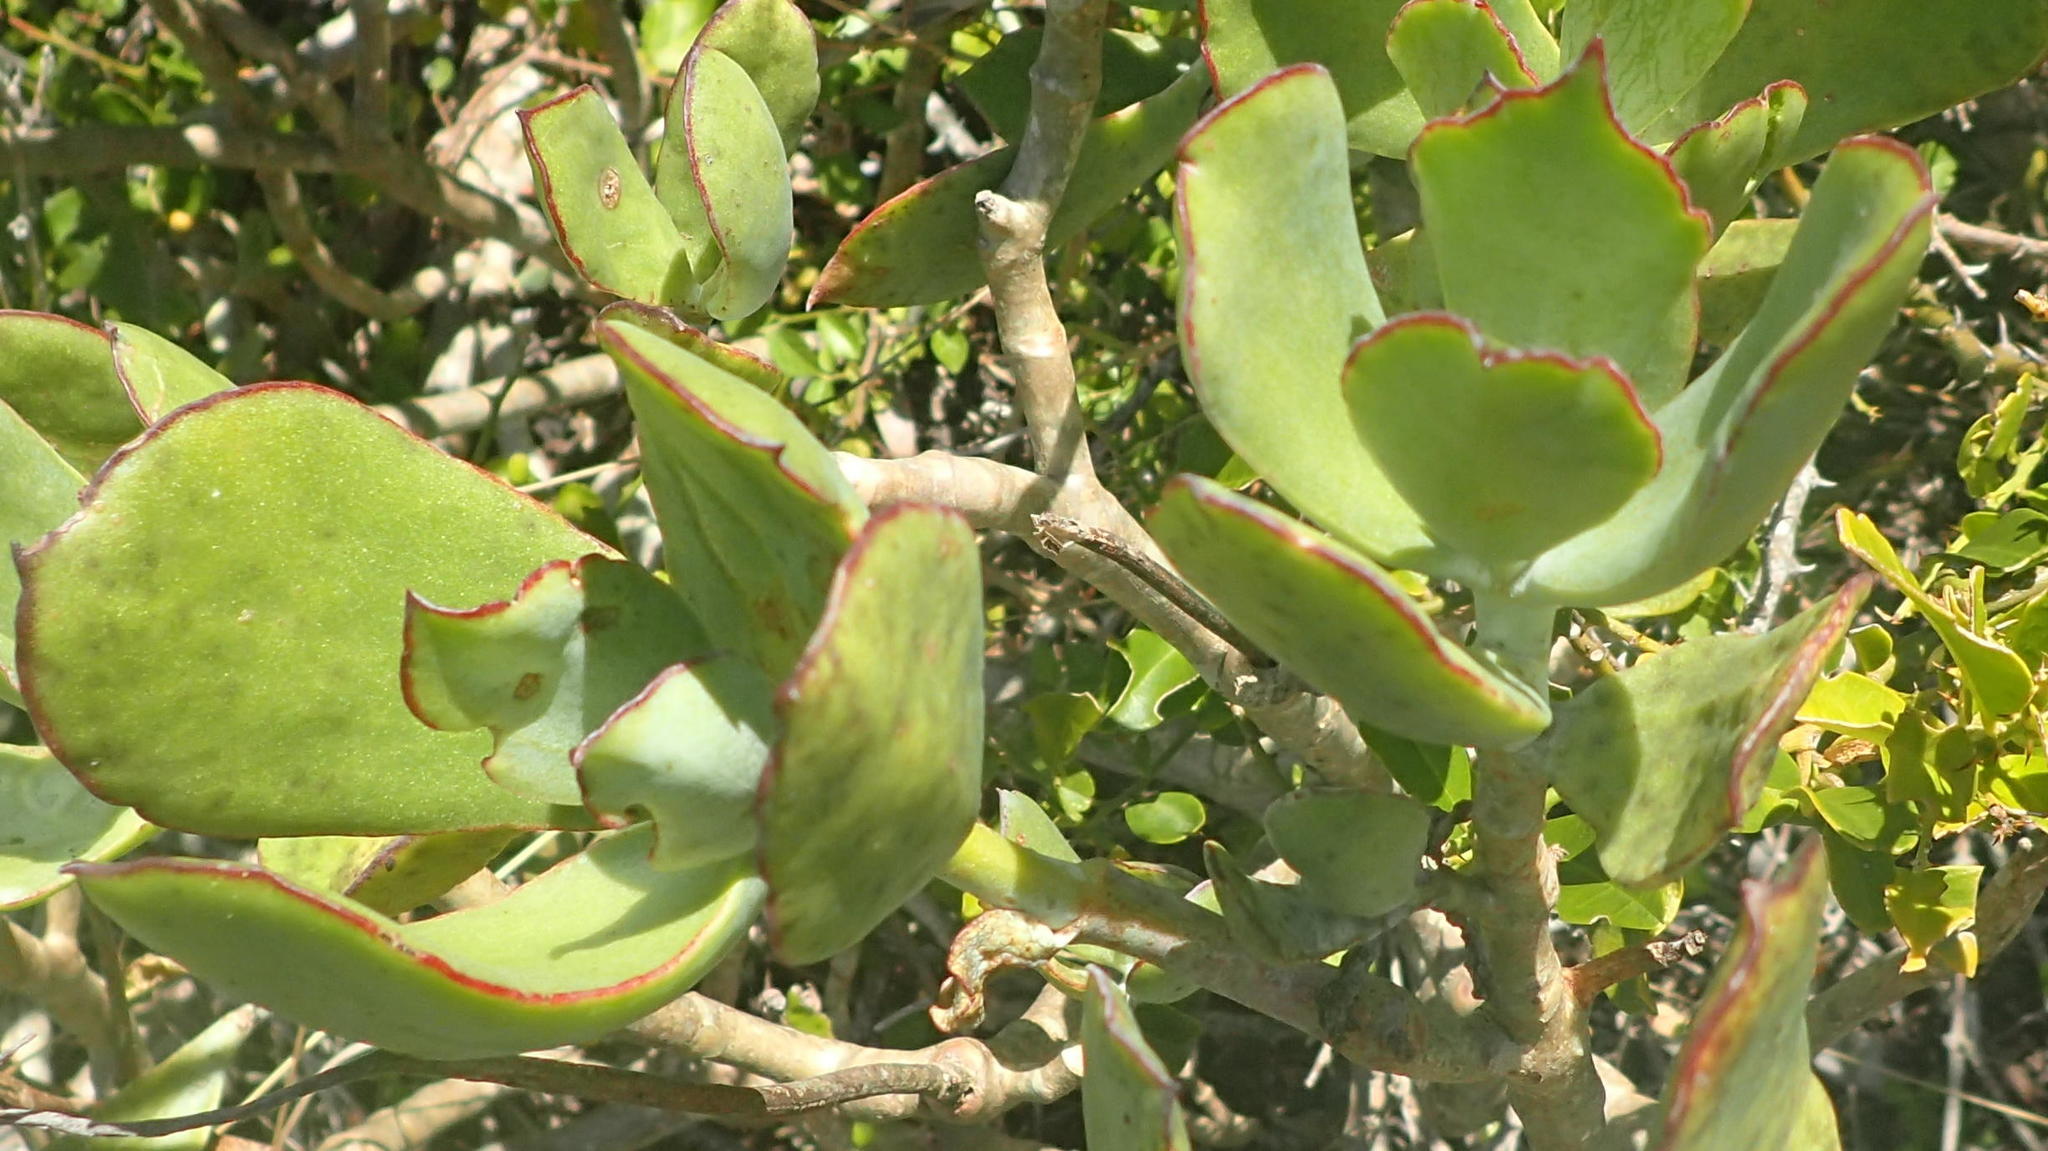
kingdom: Plantae
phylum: Tracheophyta
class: Magnoliopsida
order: Saxifragales
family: Crassulaceae
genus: Cotyledon
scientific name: Cotyledon orbiculata
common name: Pig's ear
